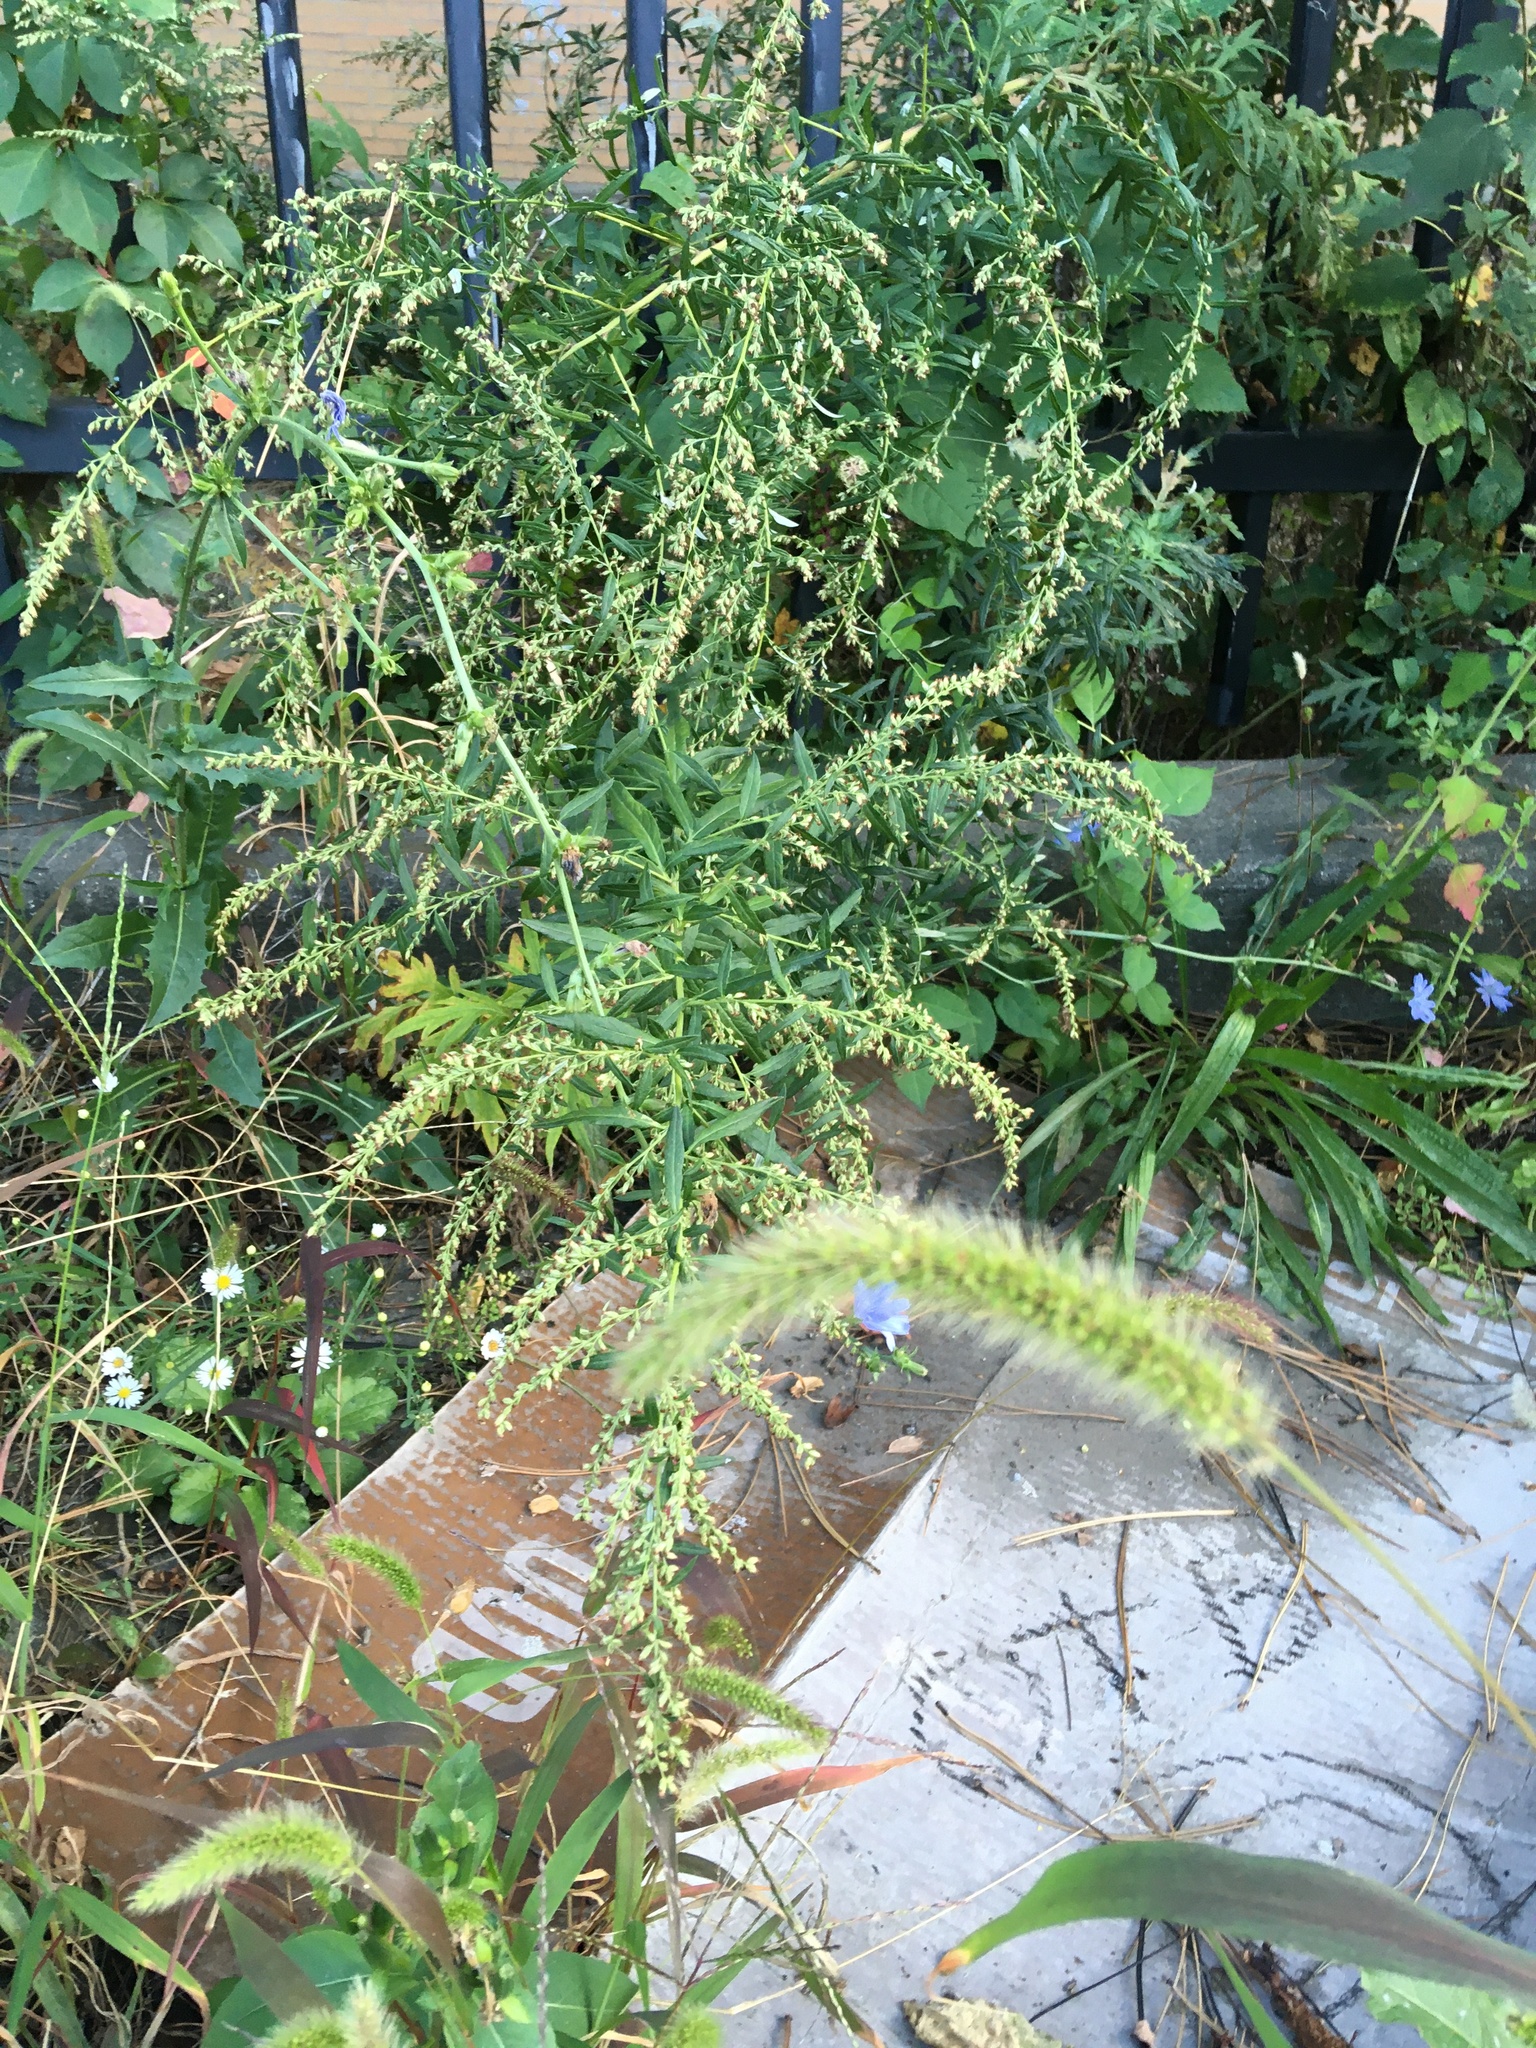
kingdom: Plantae
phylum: Tracheophyta
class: Magnoliopsida
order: Asterales
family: Asteraceae
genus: Artemisia
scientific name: Artemisia vulgaris
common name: Mugwort
